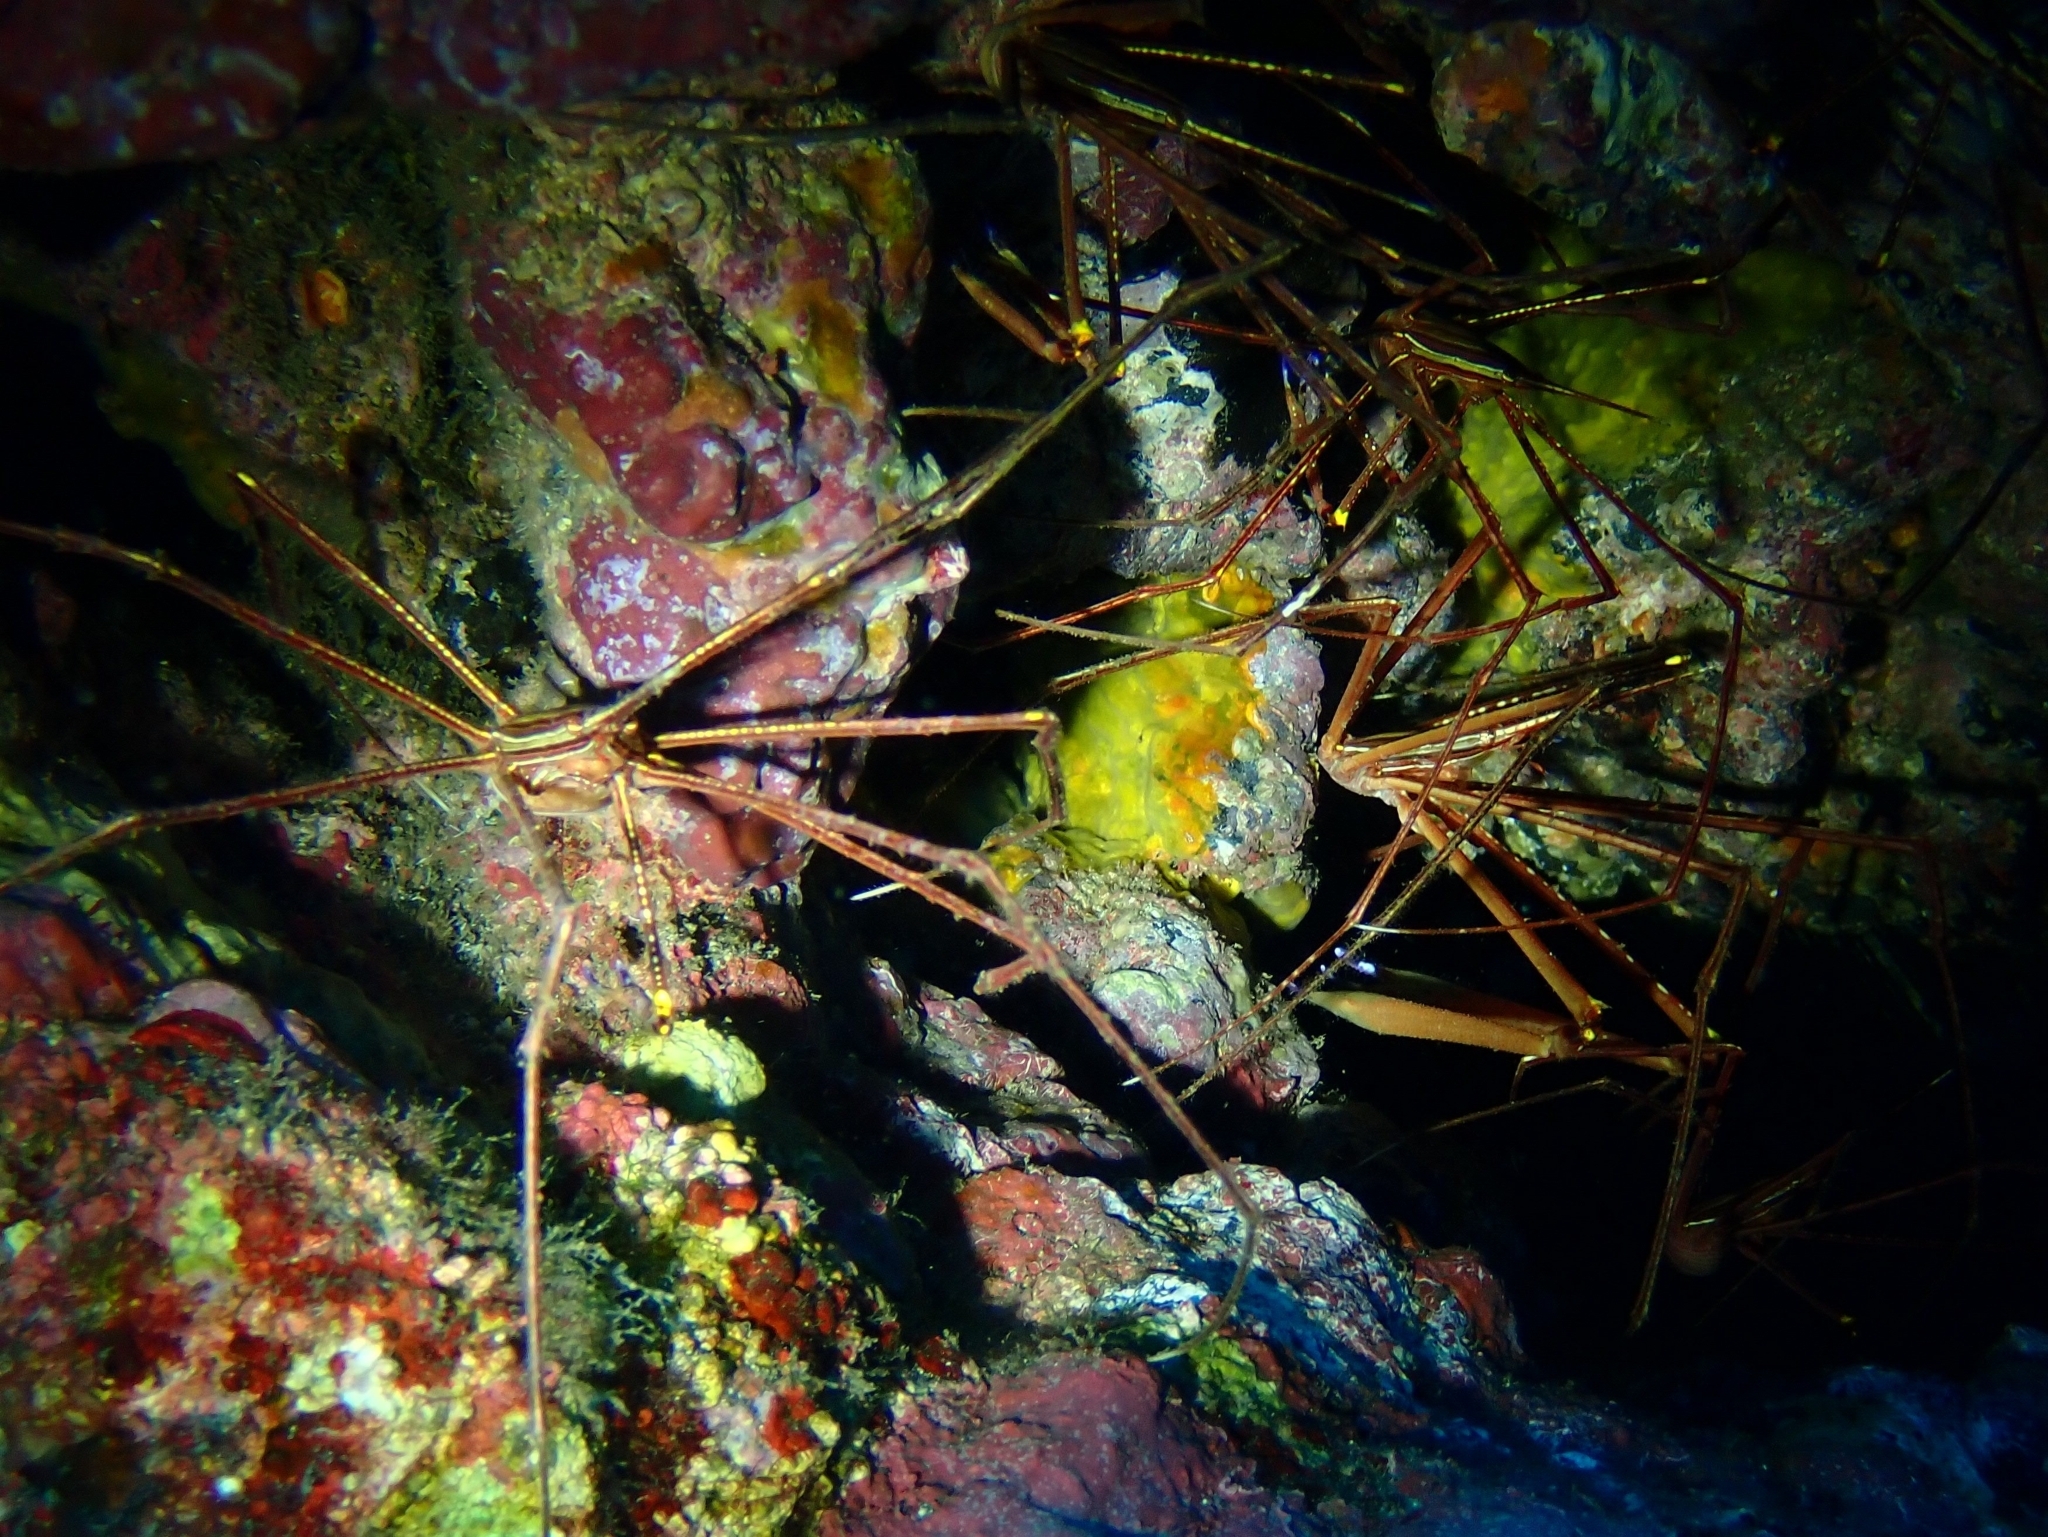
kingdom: Animalia
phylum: Arthropoda
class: Malacostraca
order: Decapoda
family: Inachoididae
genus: Stenorhynchus
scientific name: Stenorhynchus lanceolatus
